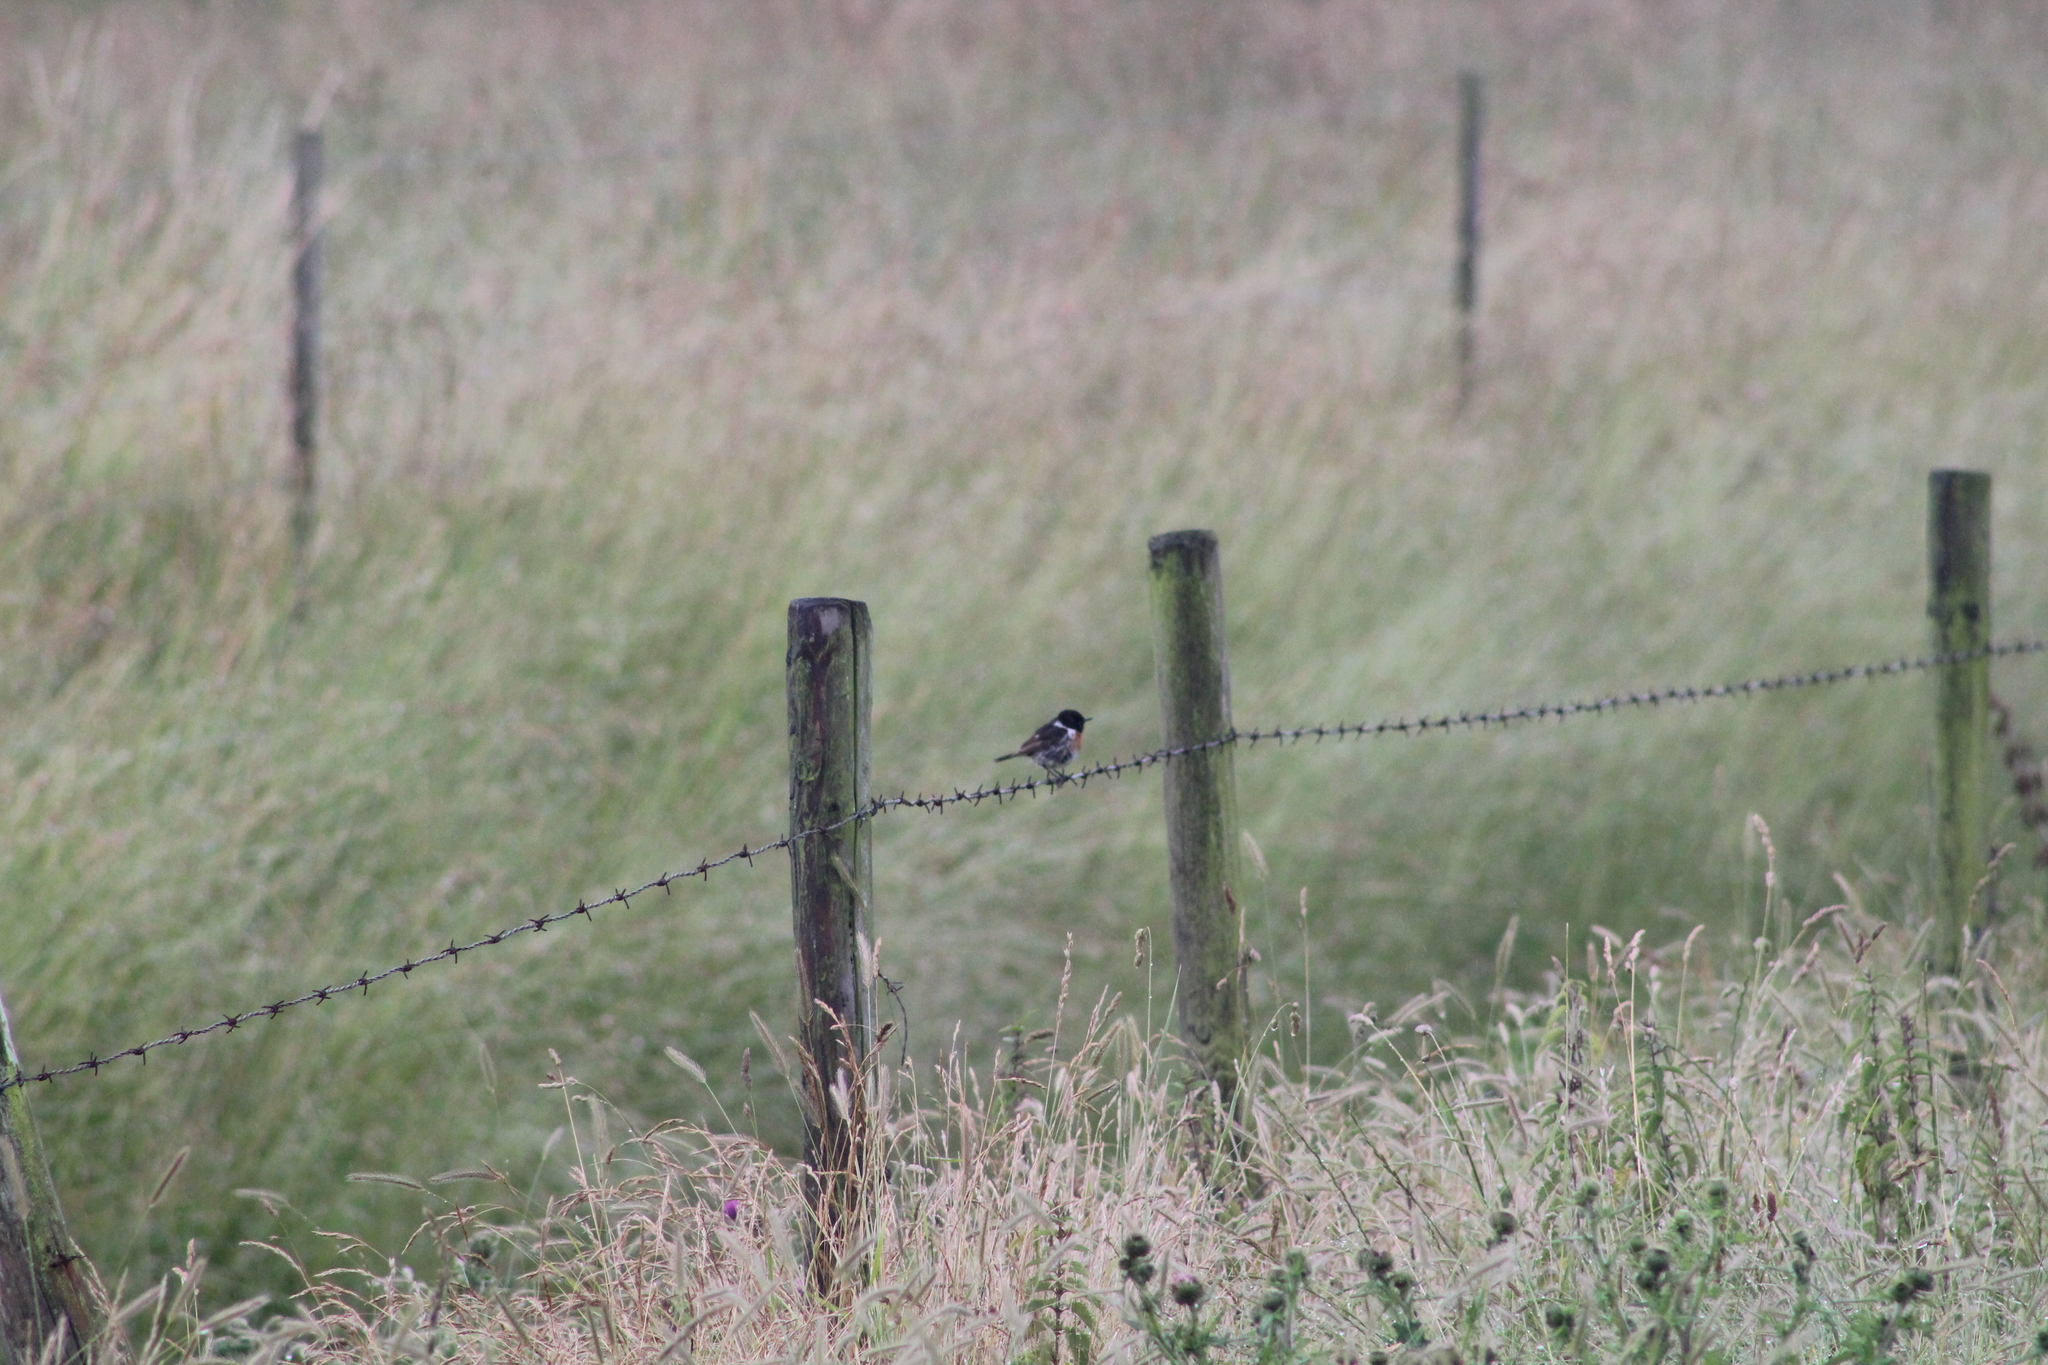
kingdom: Animalia
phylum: Chordata
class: Aves
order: Passeriformes
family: Muscicapidae
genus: Saxicola
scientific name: Saxicola rubicola
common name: European stonechat
